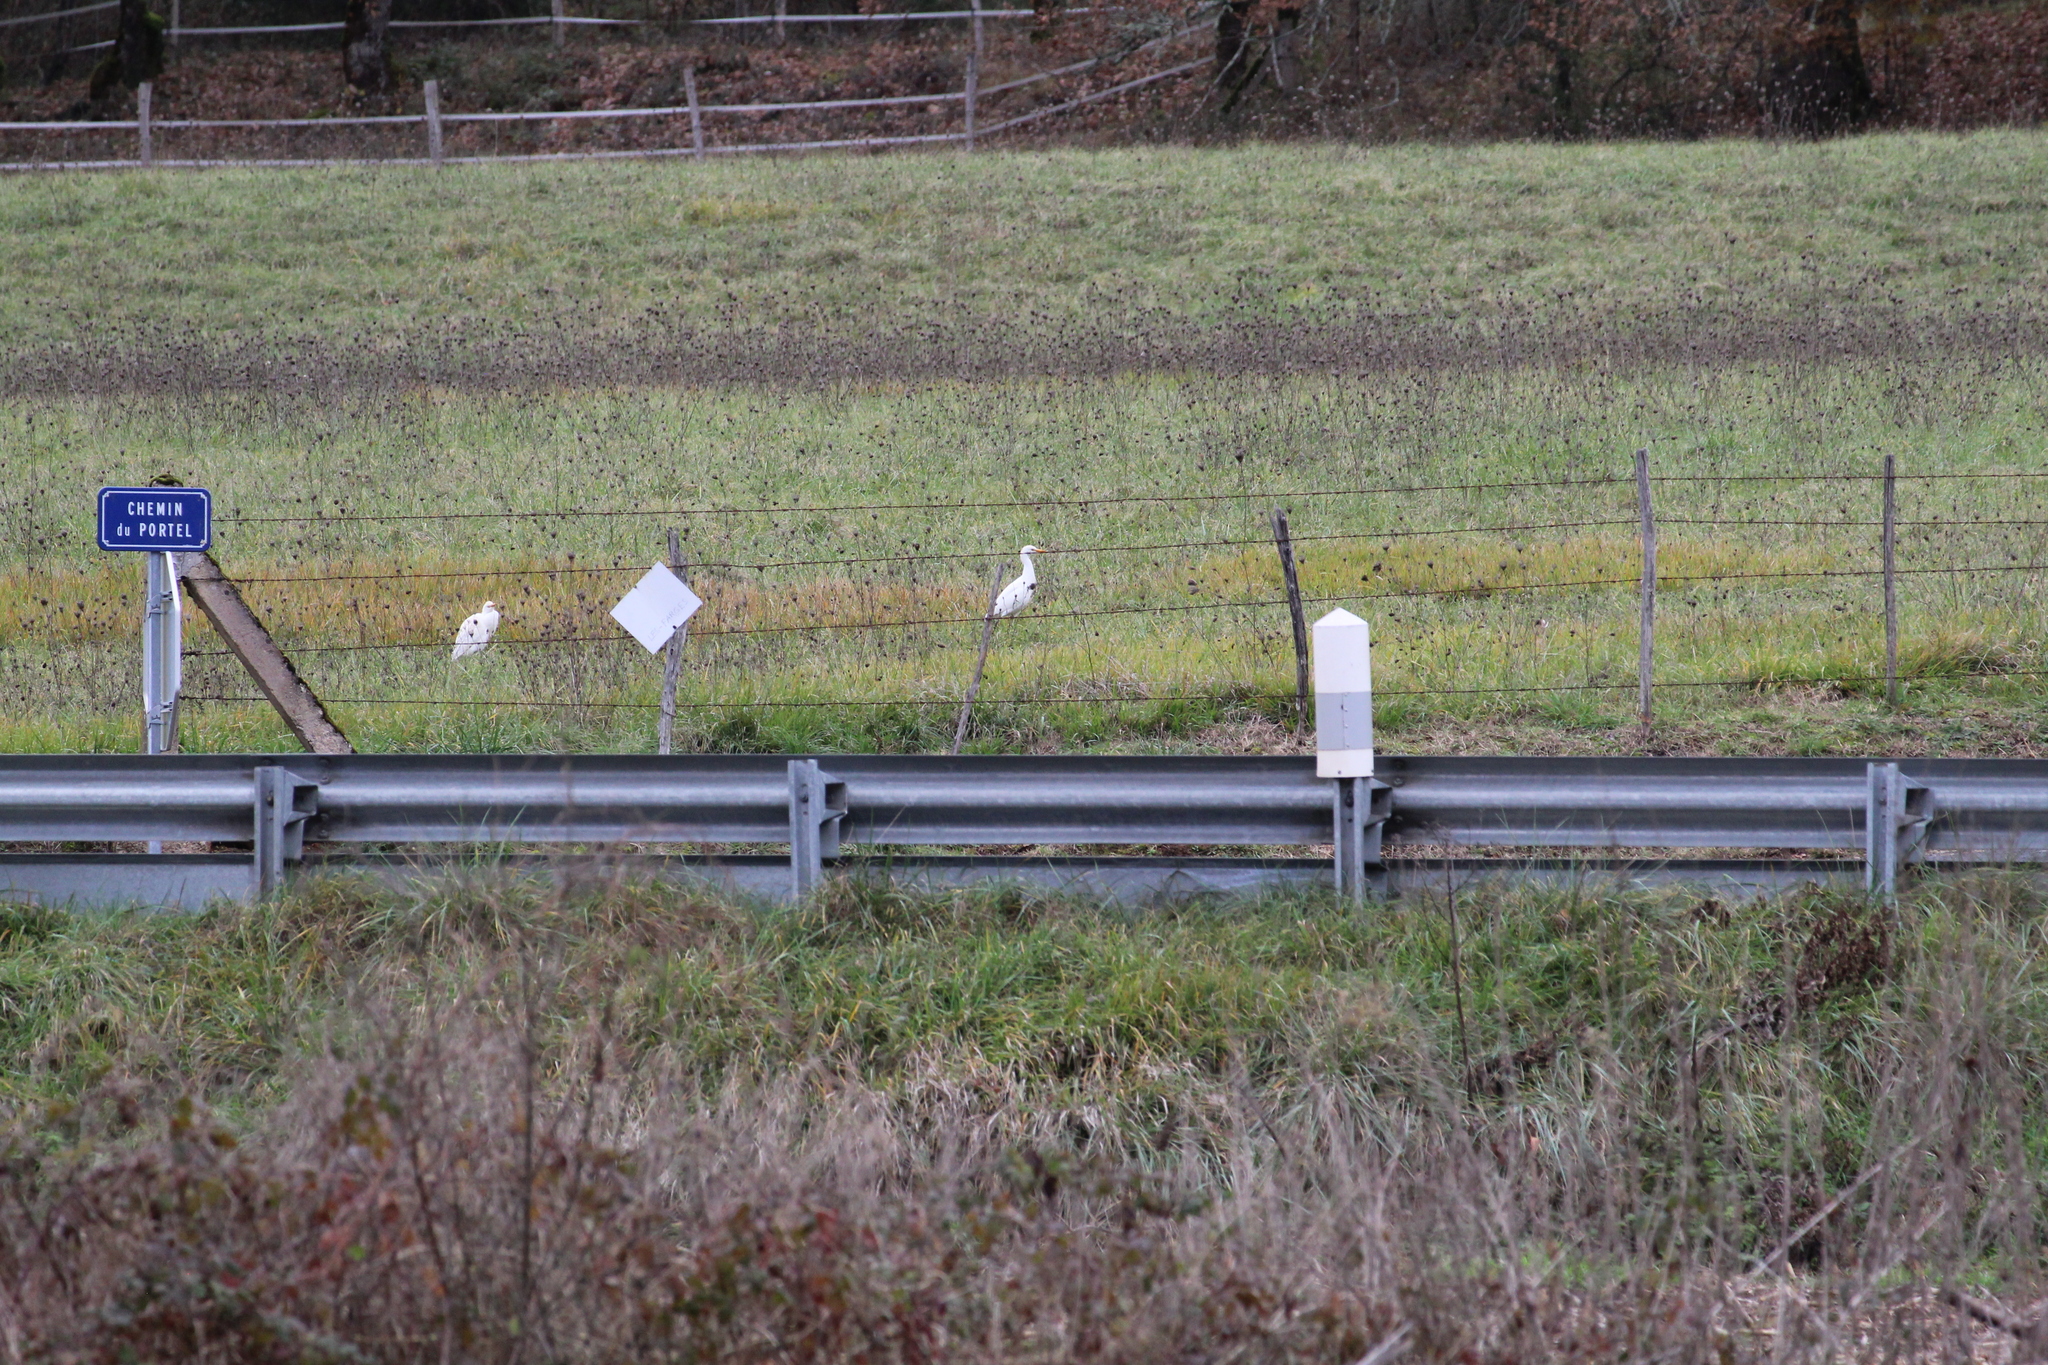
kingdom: Animalia
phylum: Chordata
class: Aves
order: Pelecaniformes
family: Ardeidae
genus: Bubulcus
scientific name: Bubulcus ibis
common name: Cattle egret
